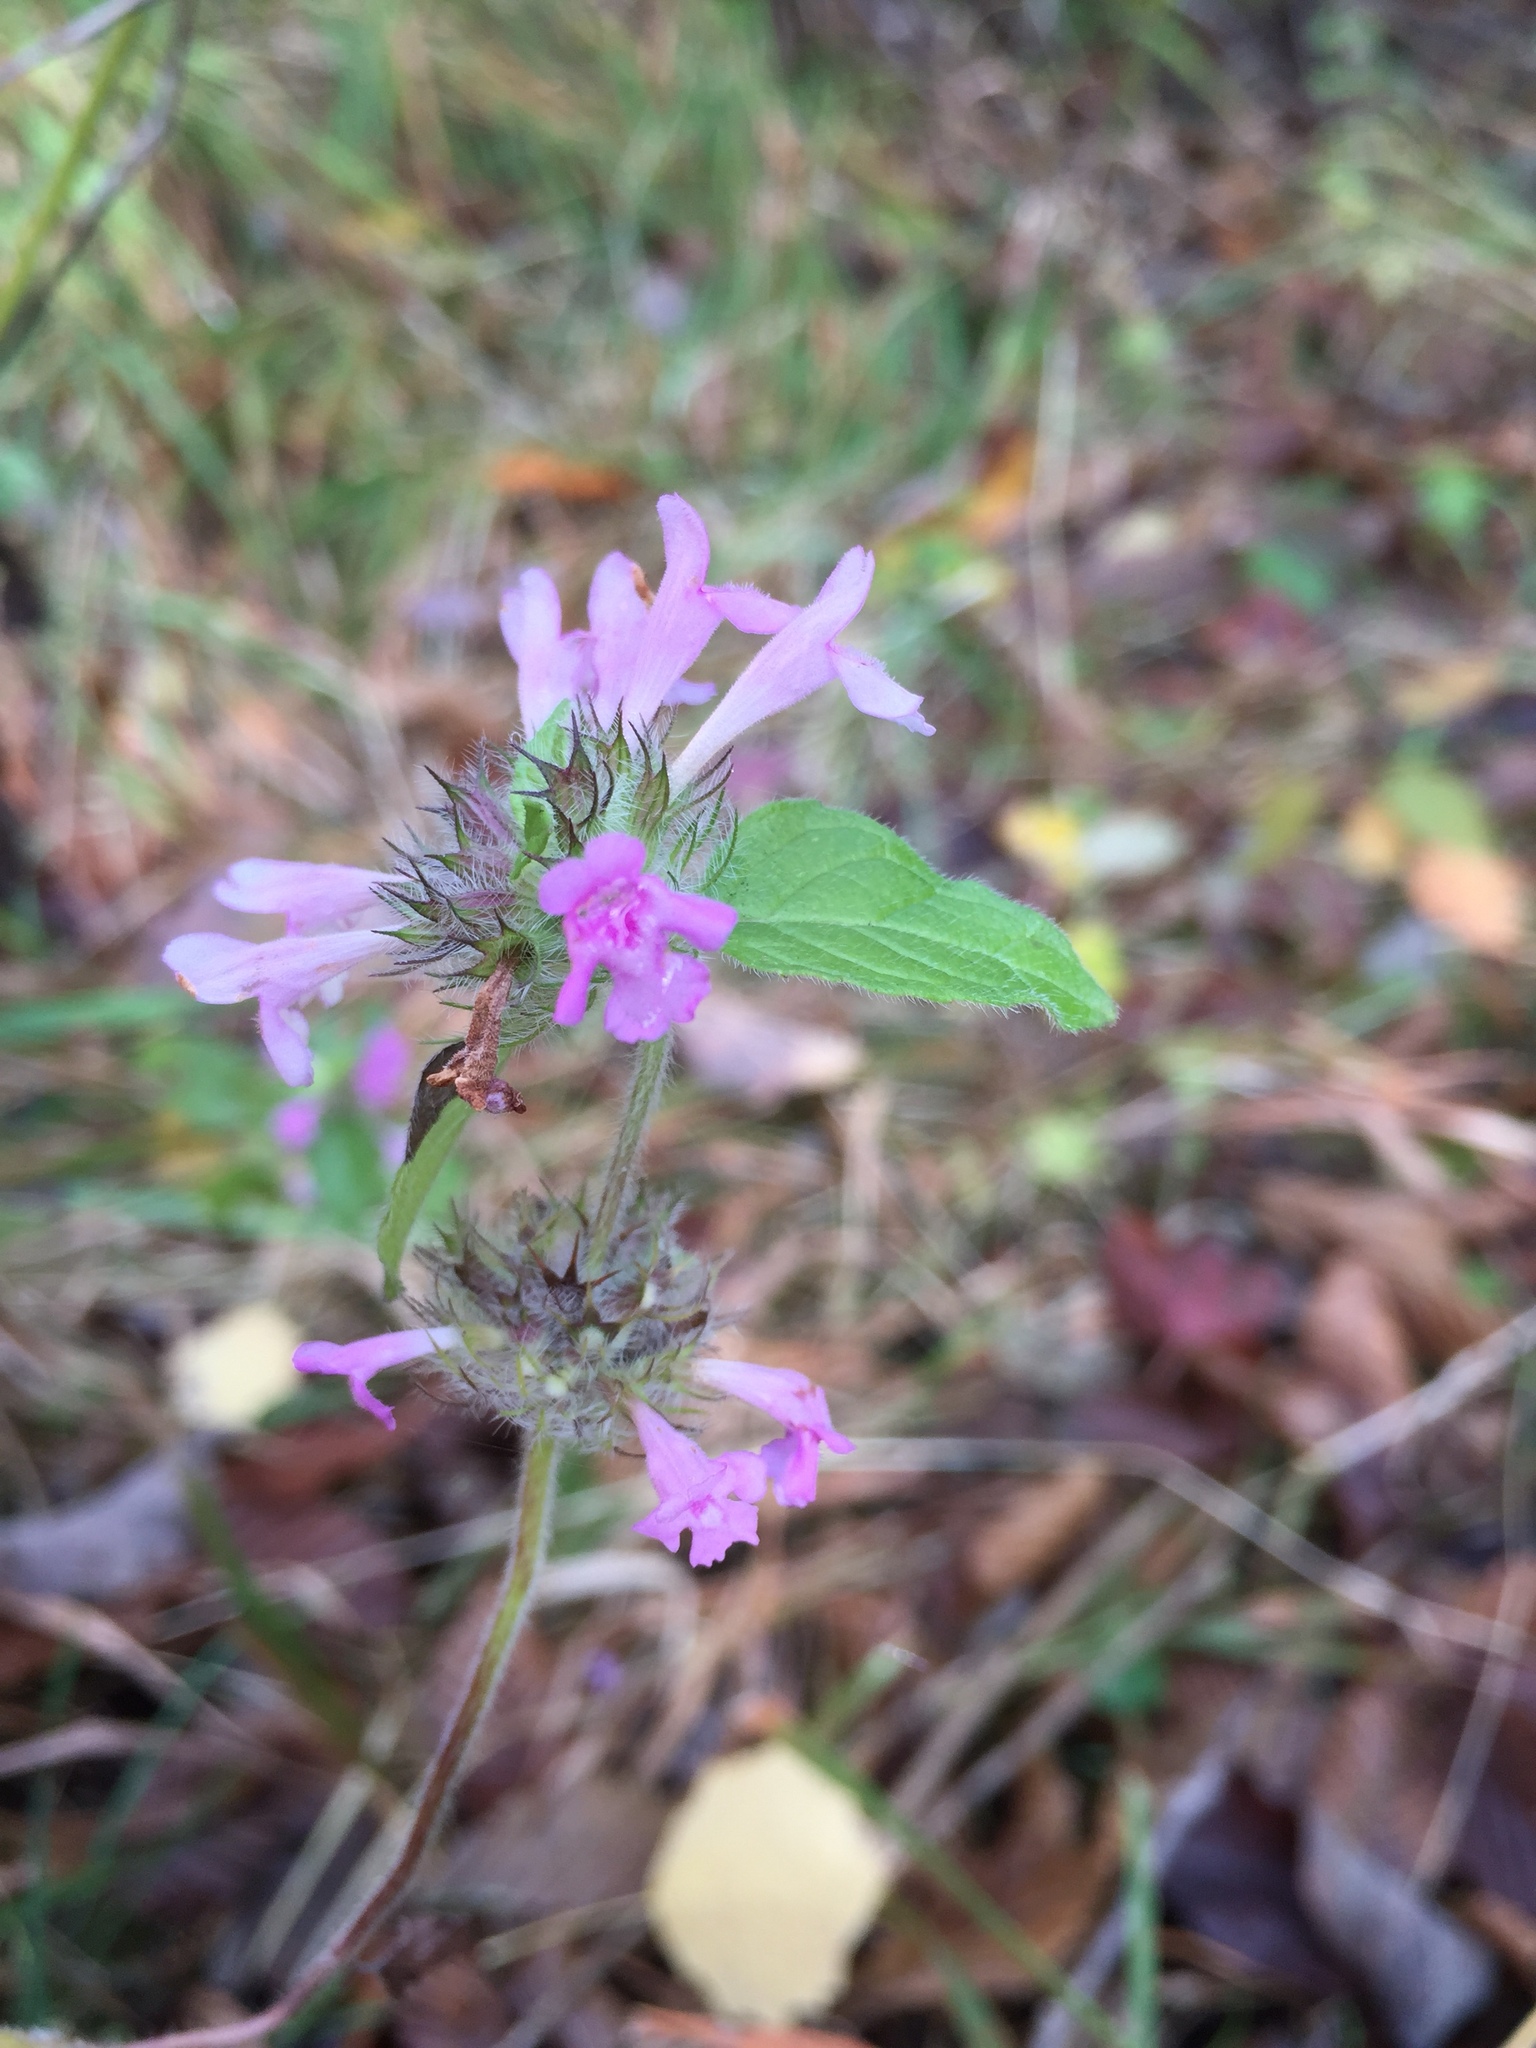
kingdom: Plantae
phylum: Tracheophyta
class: Magnoliopsida
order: Lamiales
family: Lamiaceae
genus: Clinopodium
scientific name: Clinopodium vulgare
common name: Wild basil
